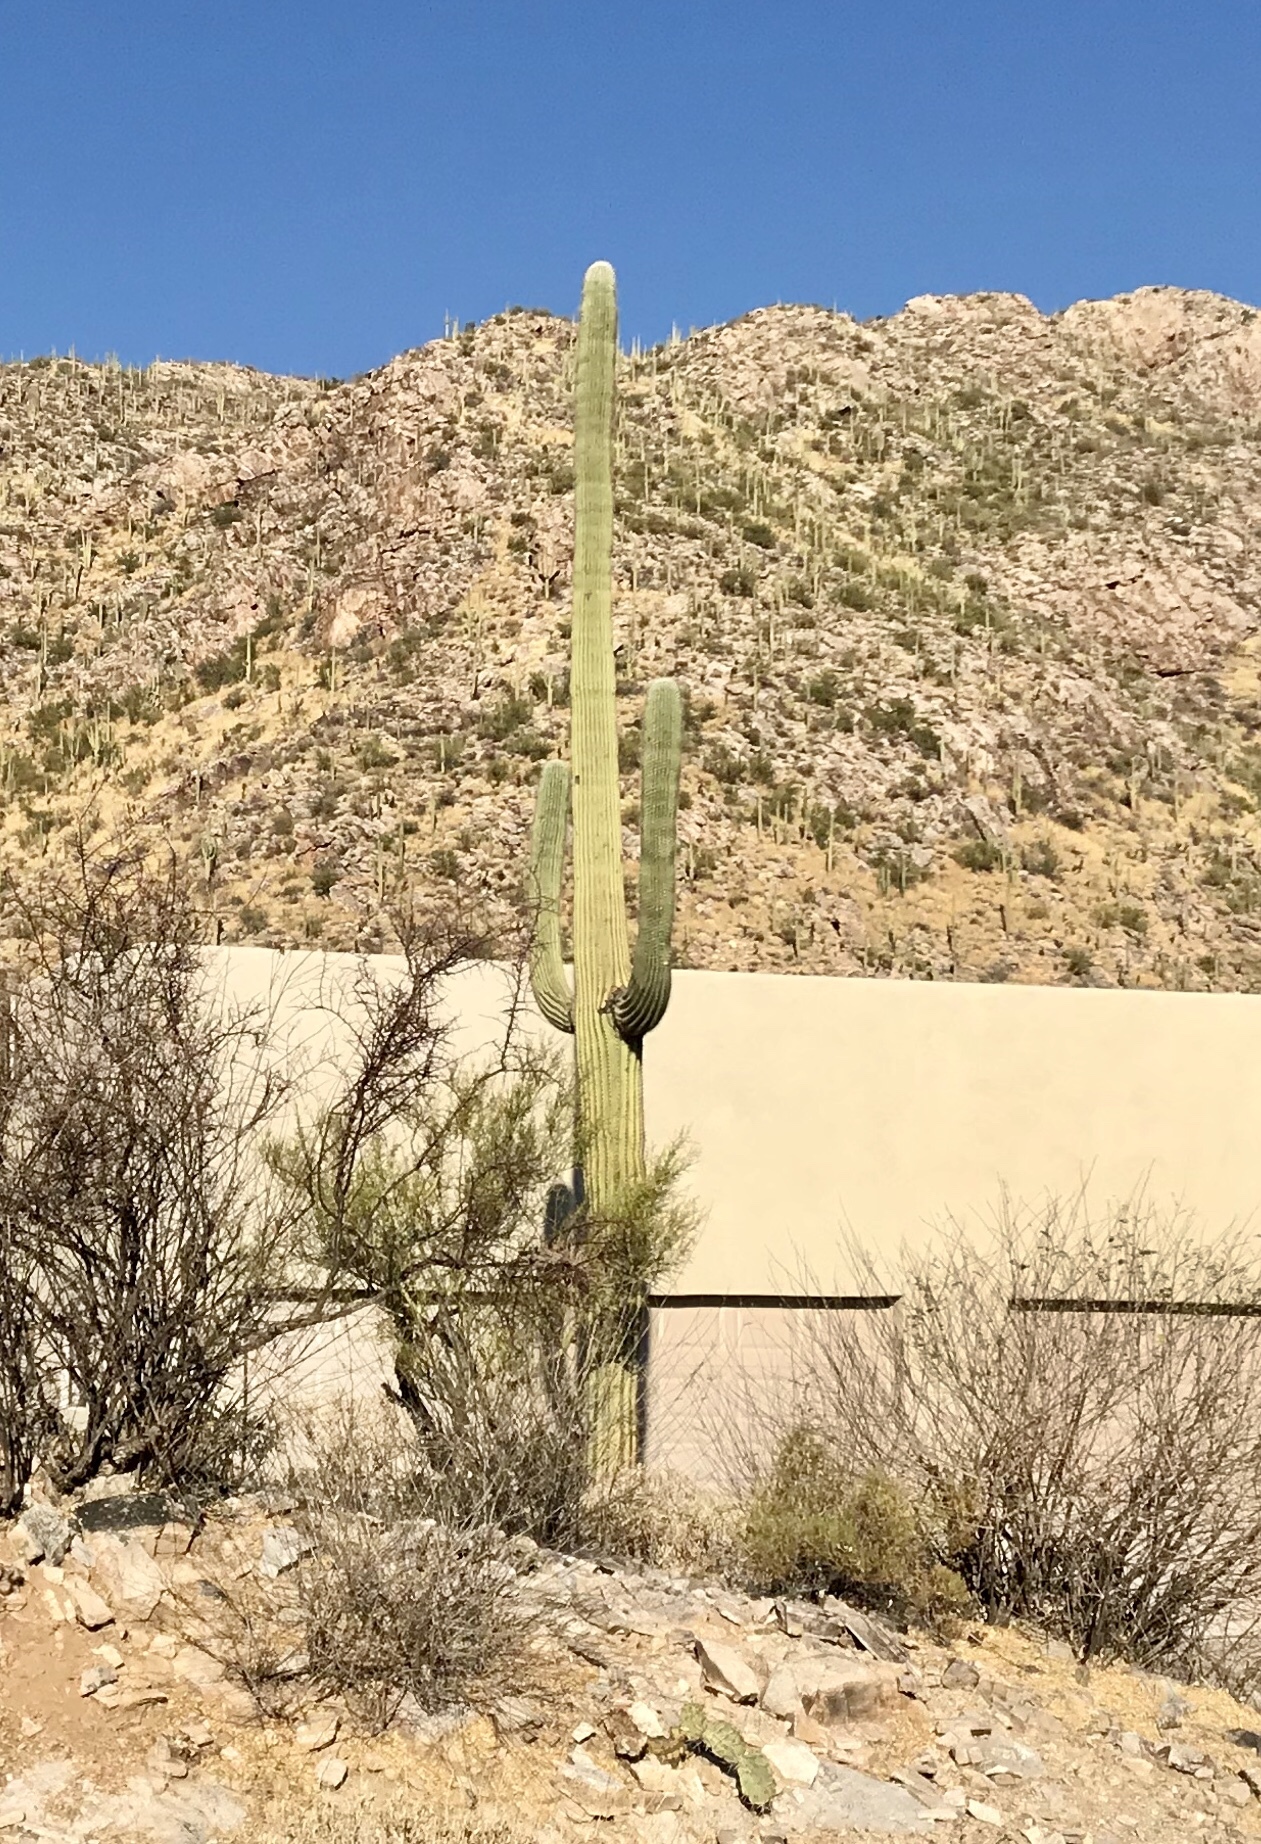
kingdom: Plantae
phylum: Tracheophyta
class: Magnoliopsida
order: Caryophyllales
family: Cactaceae
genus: Carnegiea
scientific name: Carnegiea gigantea
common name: Saguaro
